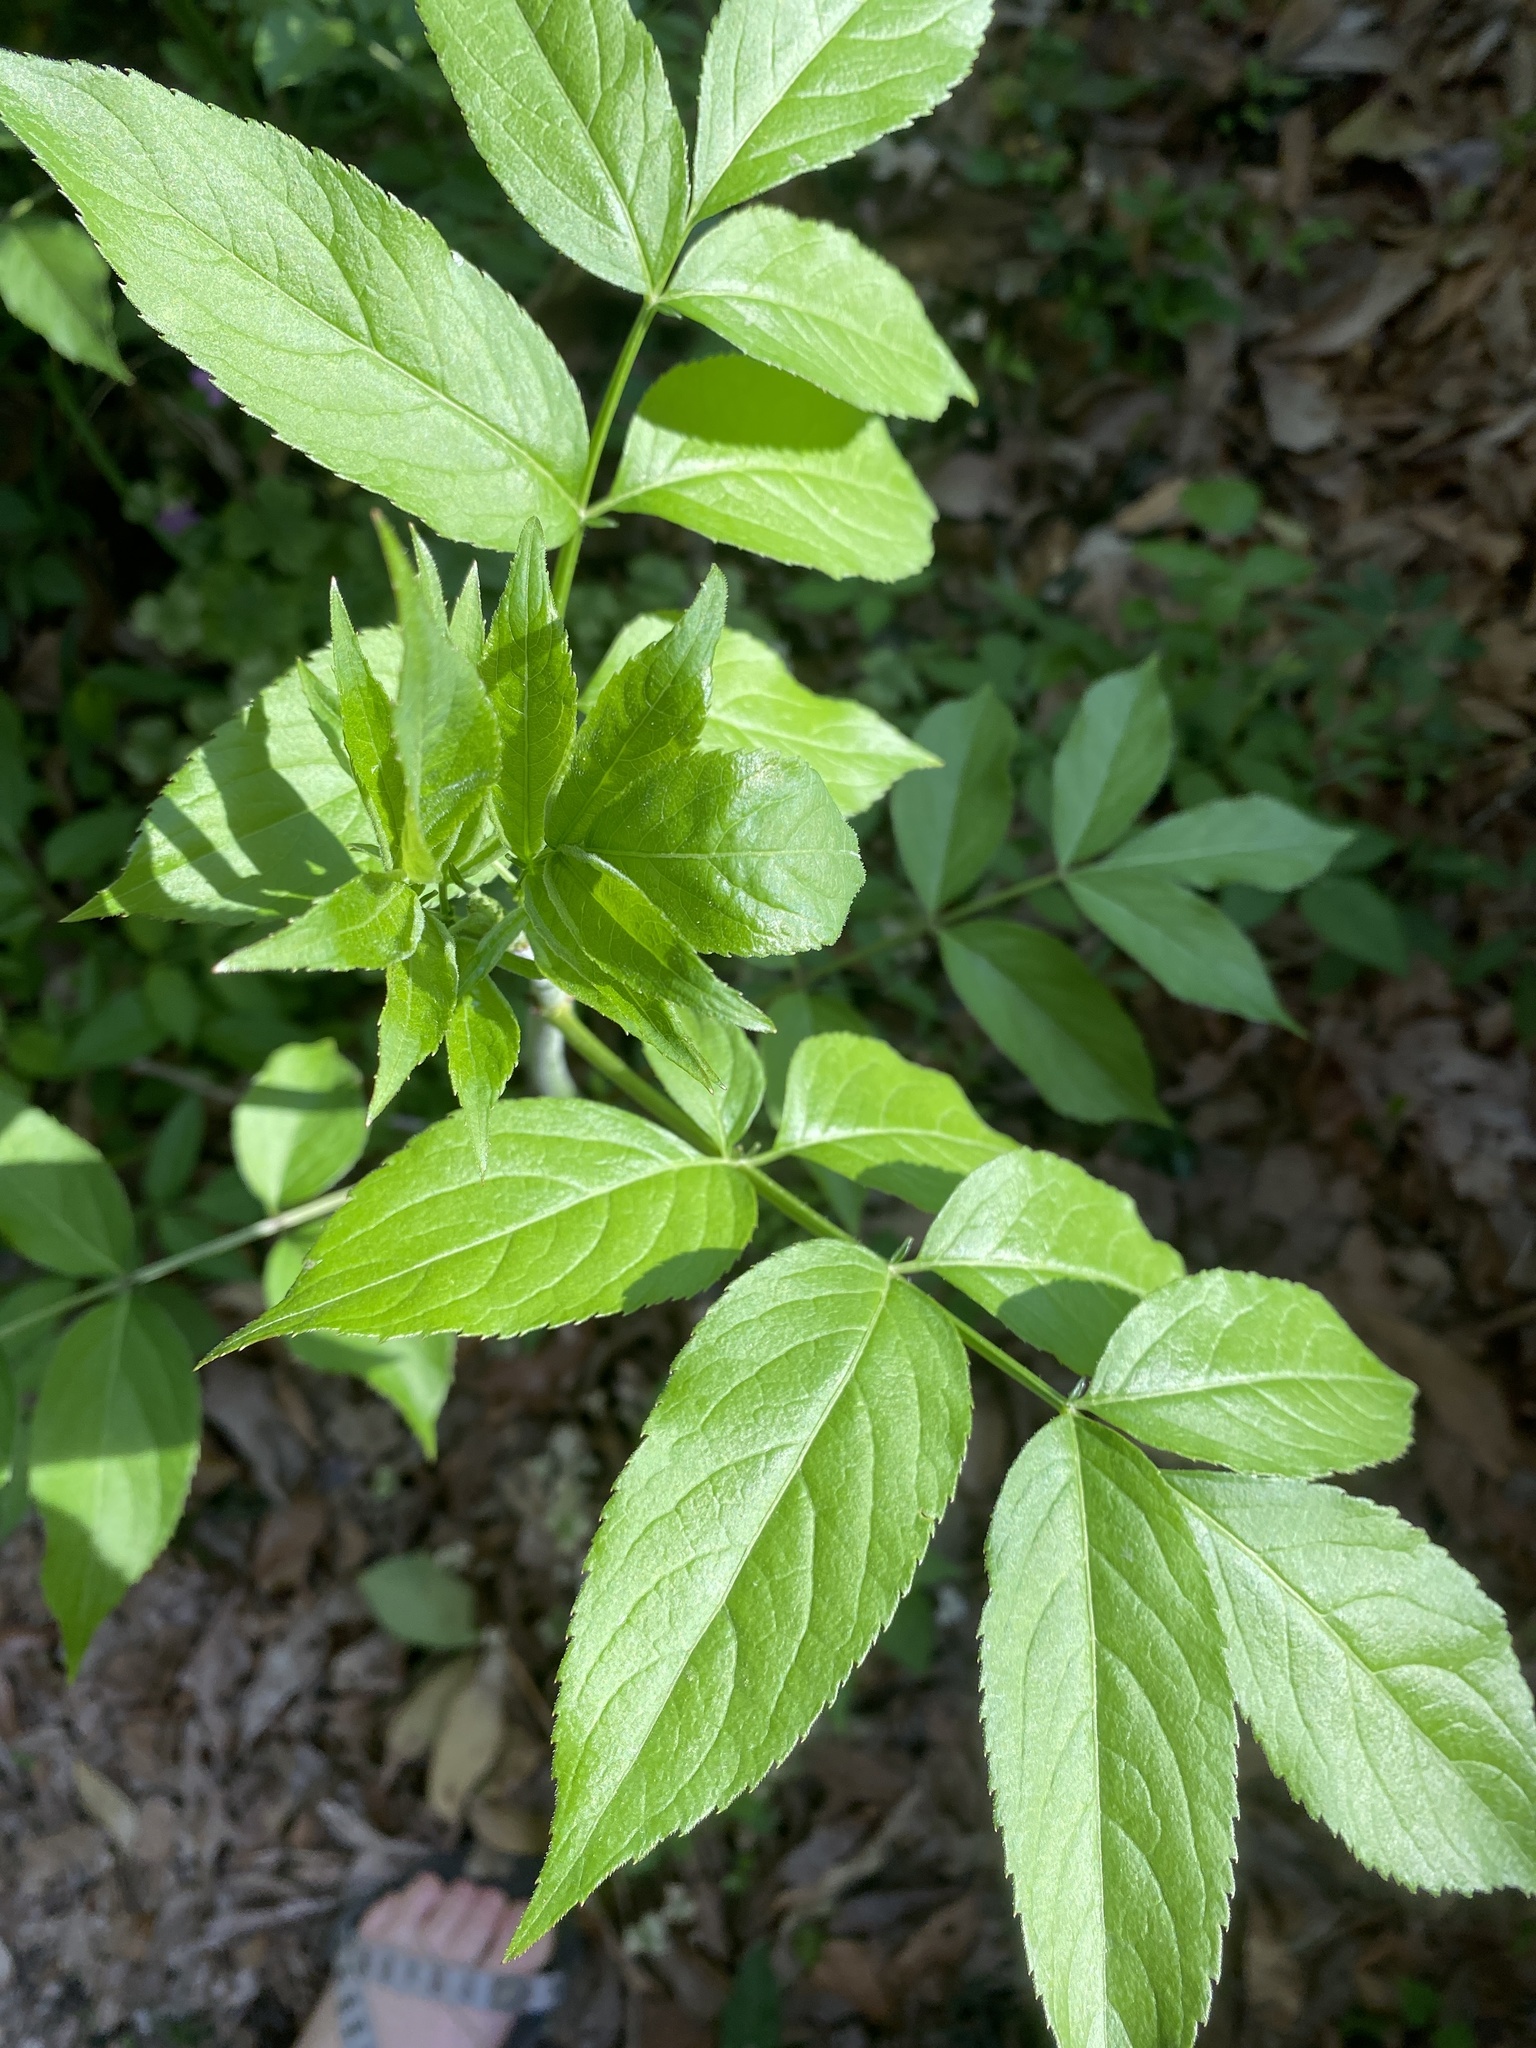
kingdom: Plantae
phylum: Tracheophyta
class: Magnoliopsida
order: Dipsacales
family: Viburnaceae
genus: Sambucus
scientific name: Sambucus canadensis
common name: American elder
